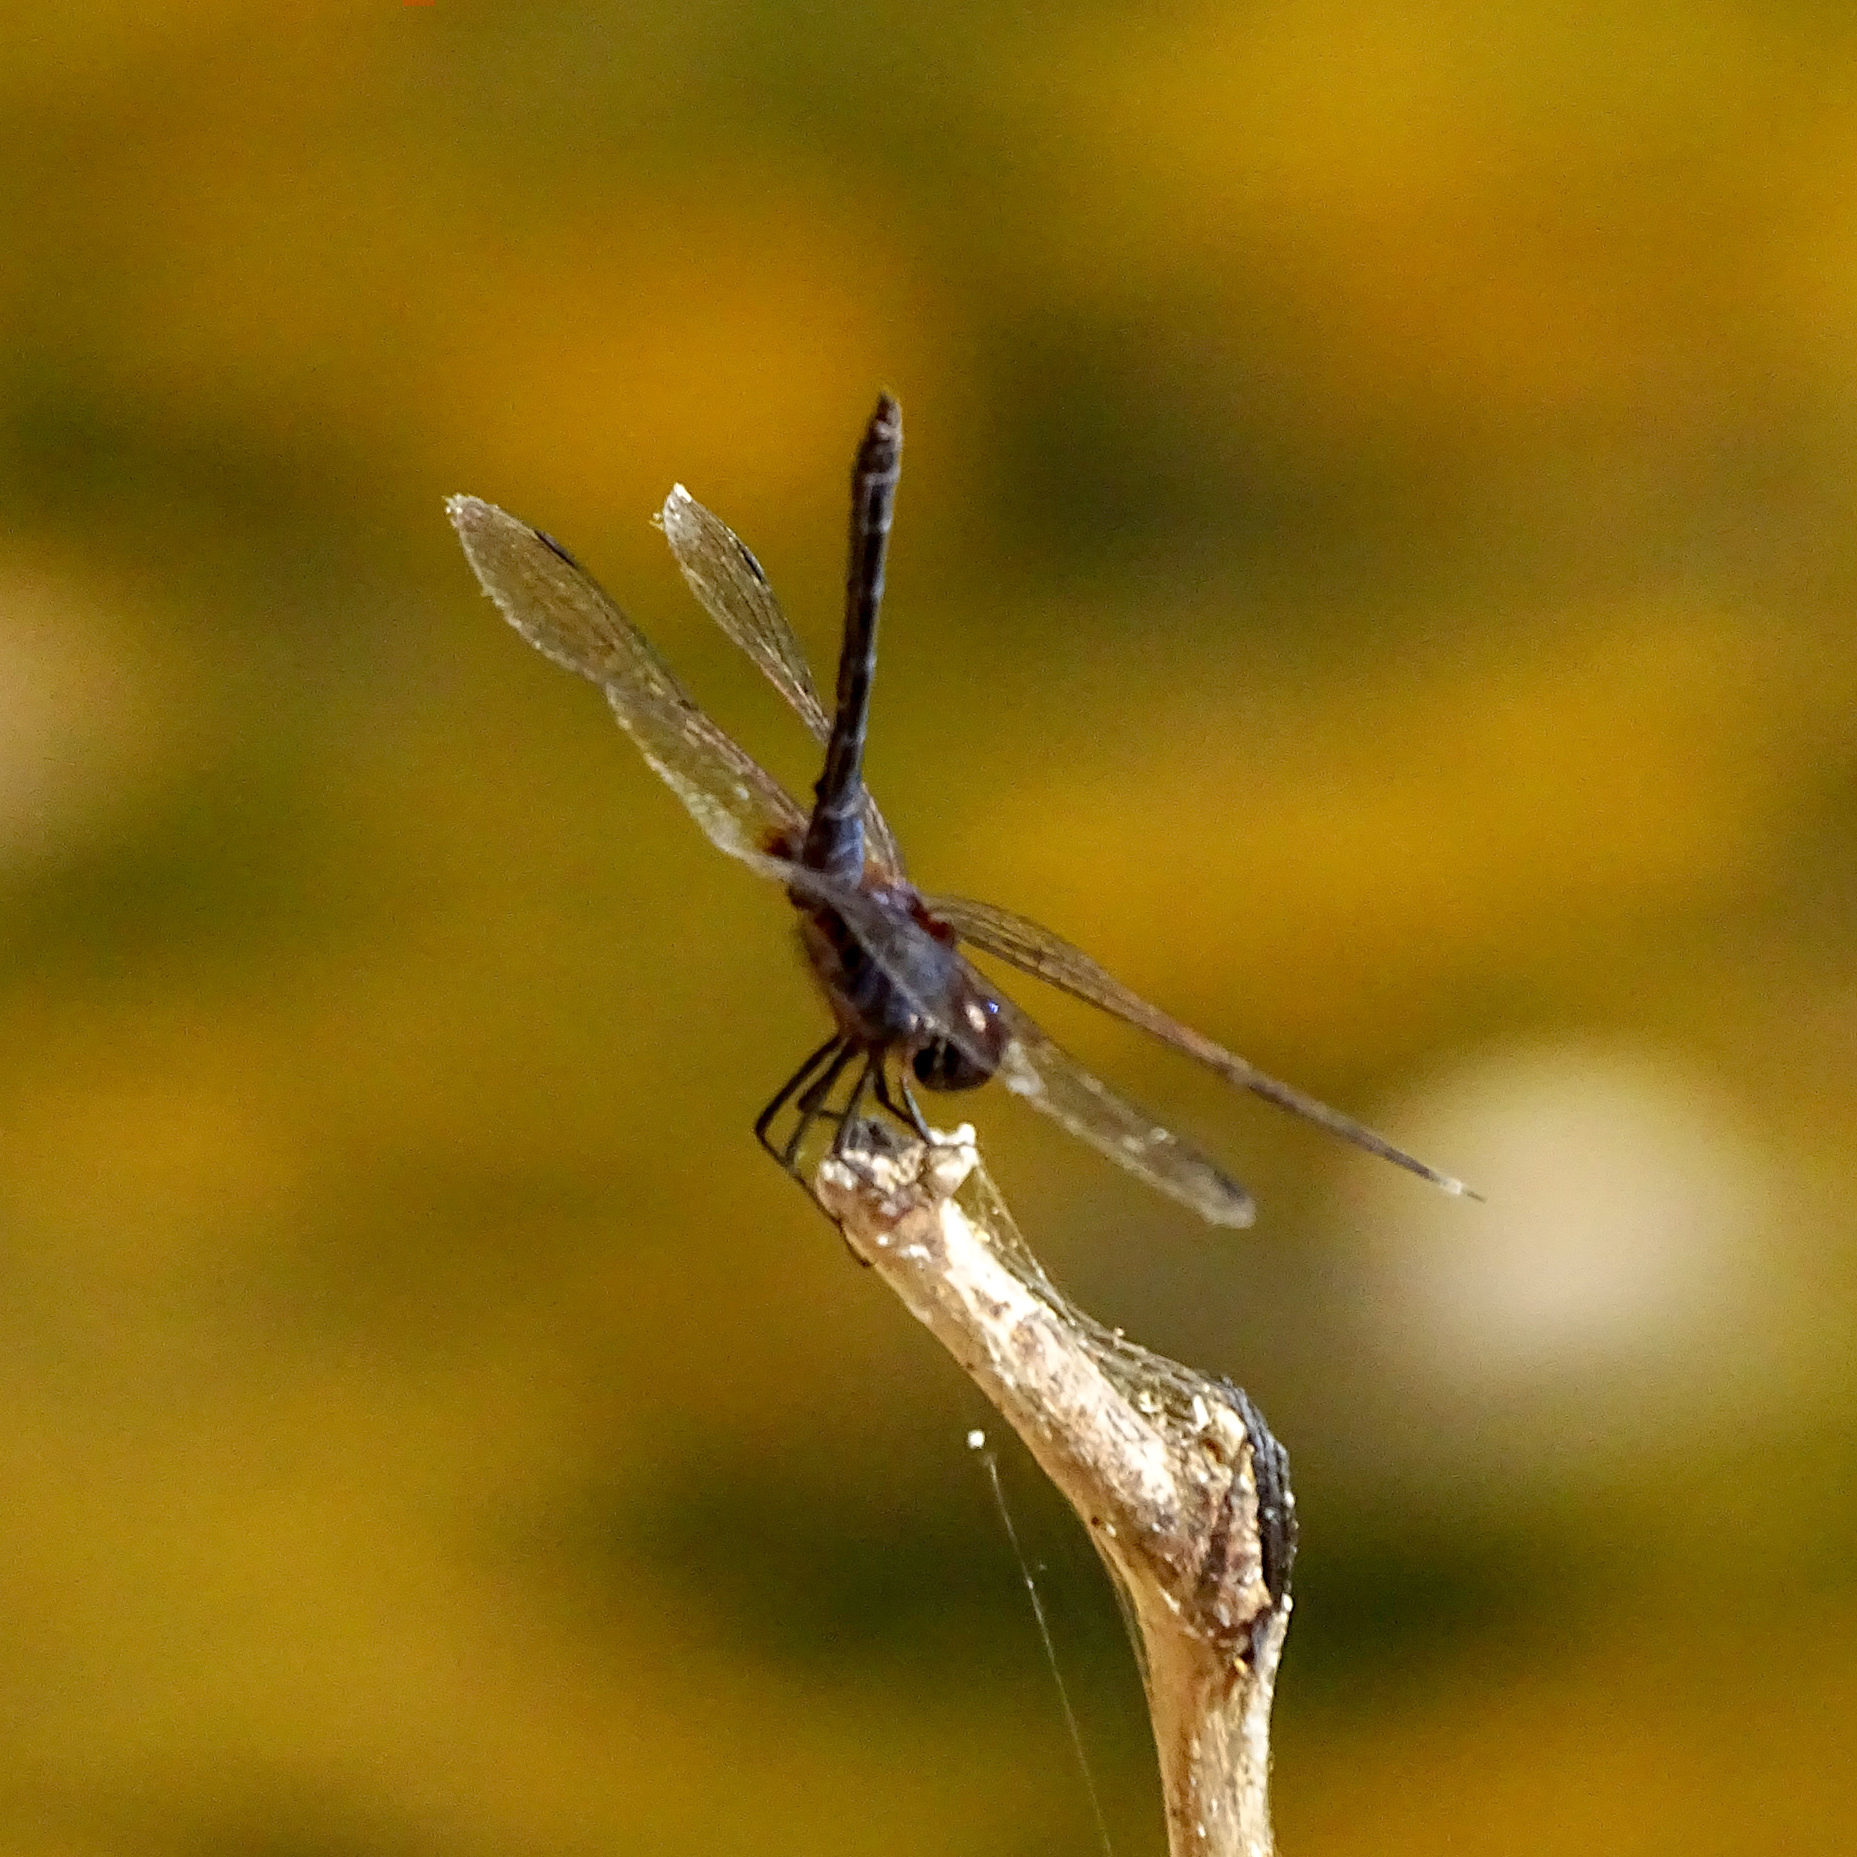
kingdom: Animalia
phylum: Arthropoda
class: Insecta
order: Odonata
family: Libellulidae
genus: Trithemis
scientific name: Trithemis festiva
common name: Indigo dropwing
